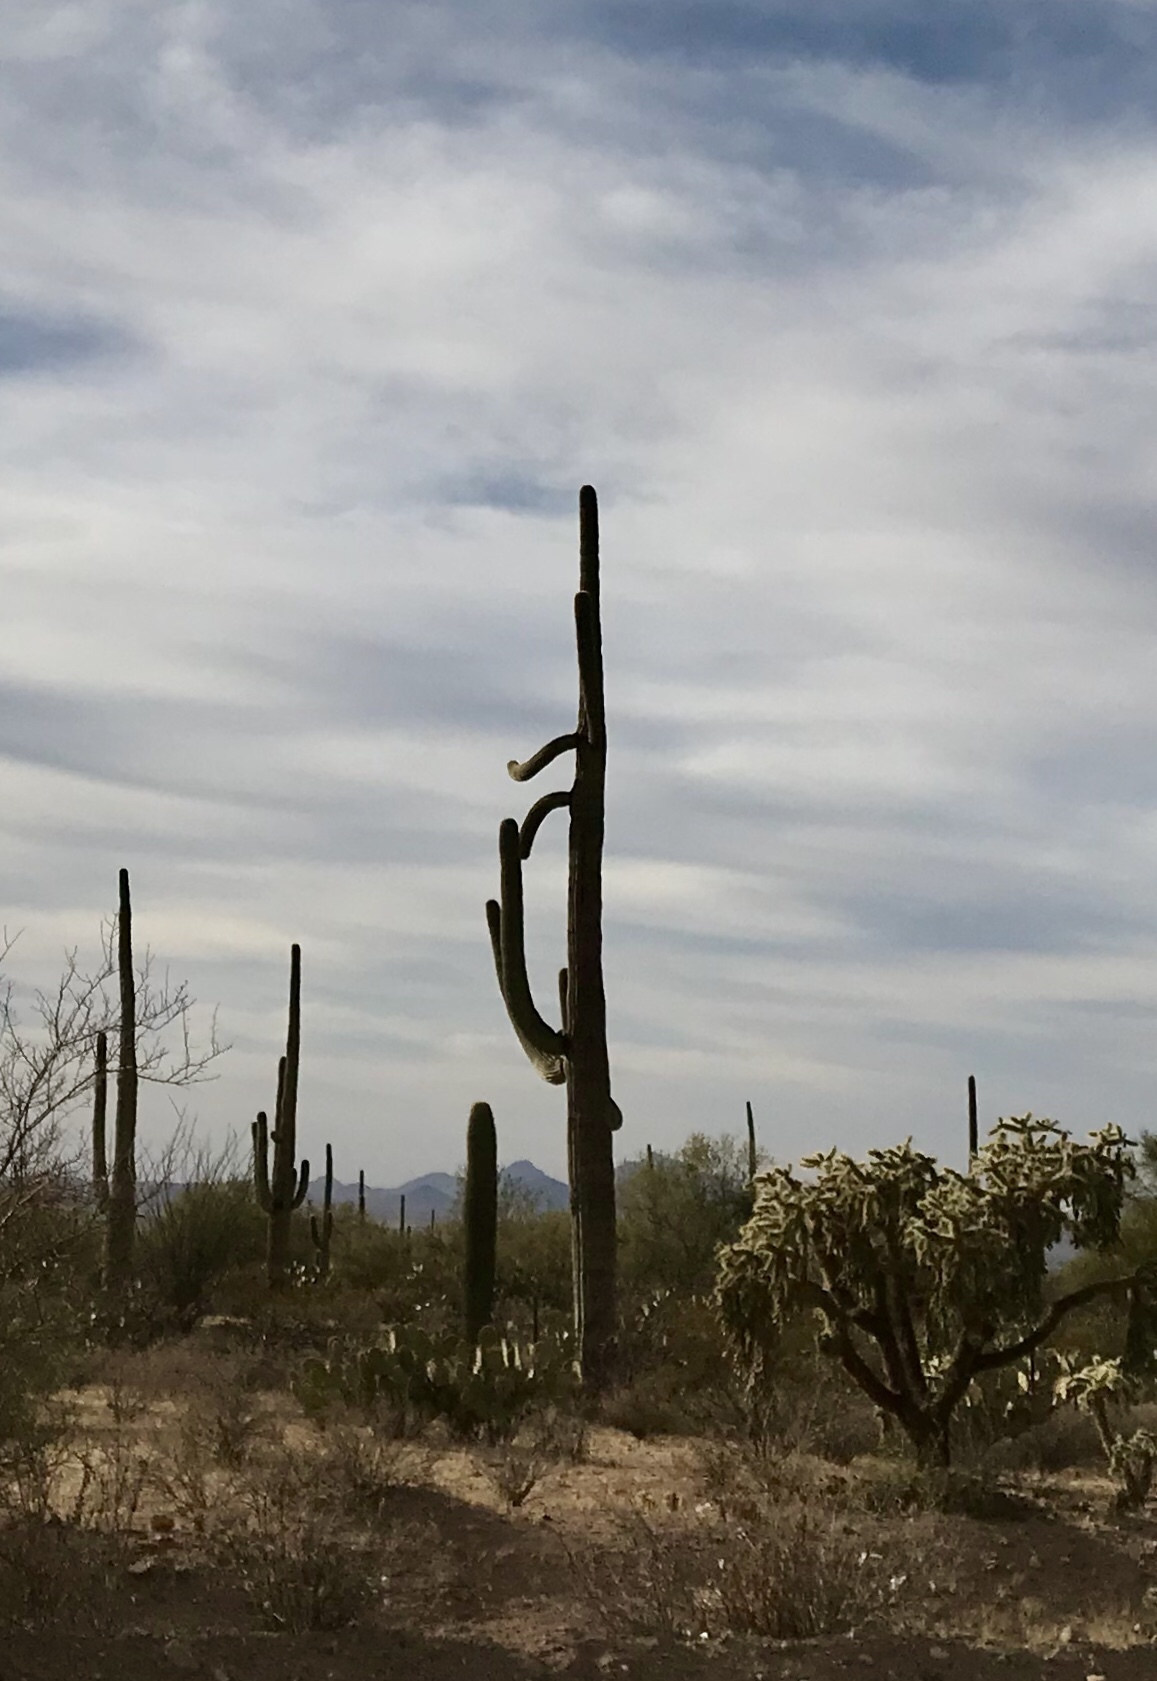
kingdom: Plantae
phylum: Tracheophyta
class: Magnoliopsida
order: Caryophyllales
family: Cactaceae
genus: Carnegiea
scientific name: Carnegiea gigantea
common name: Saguaro
